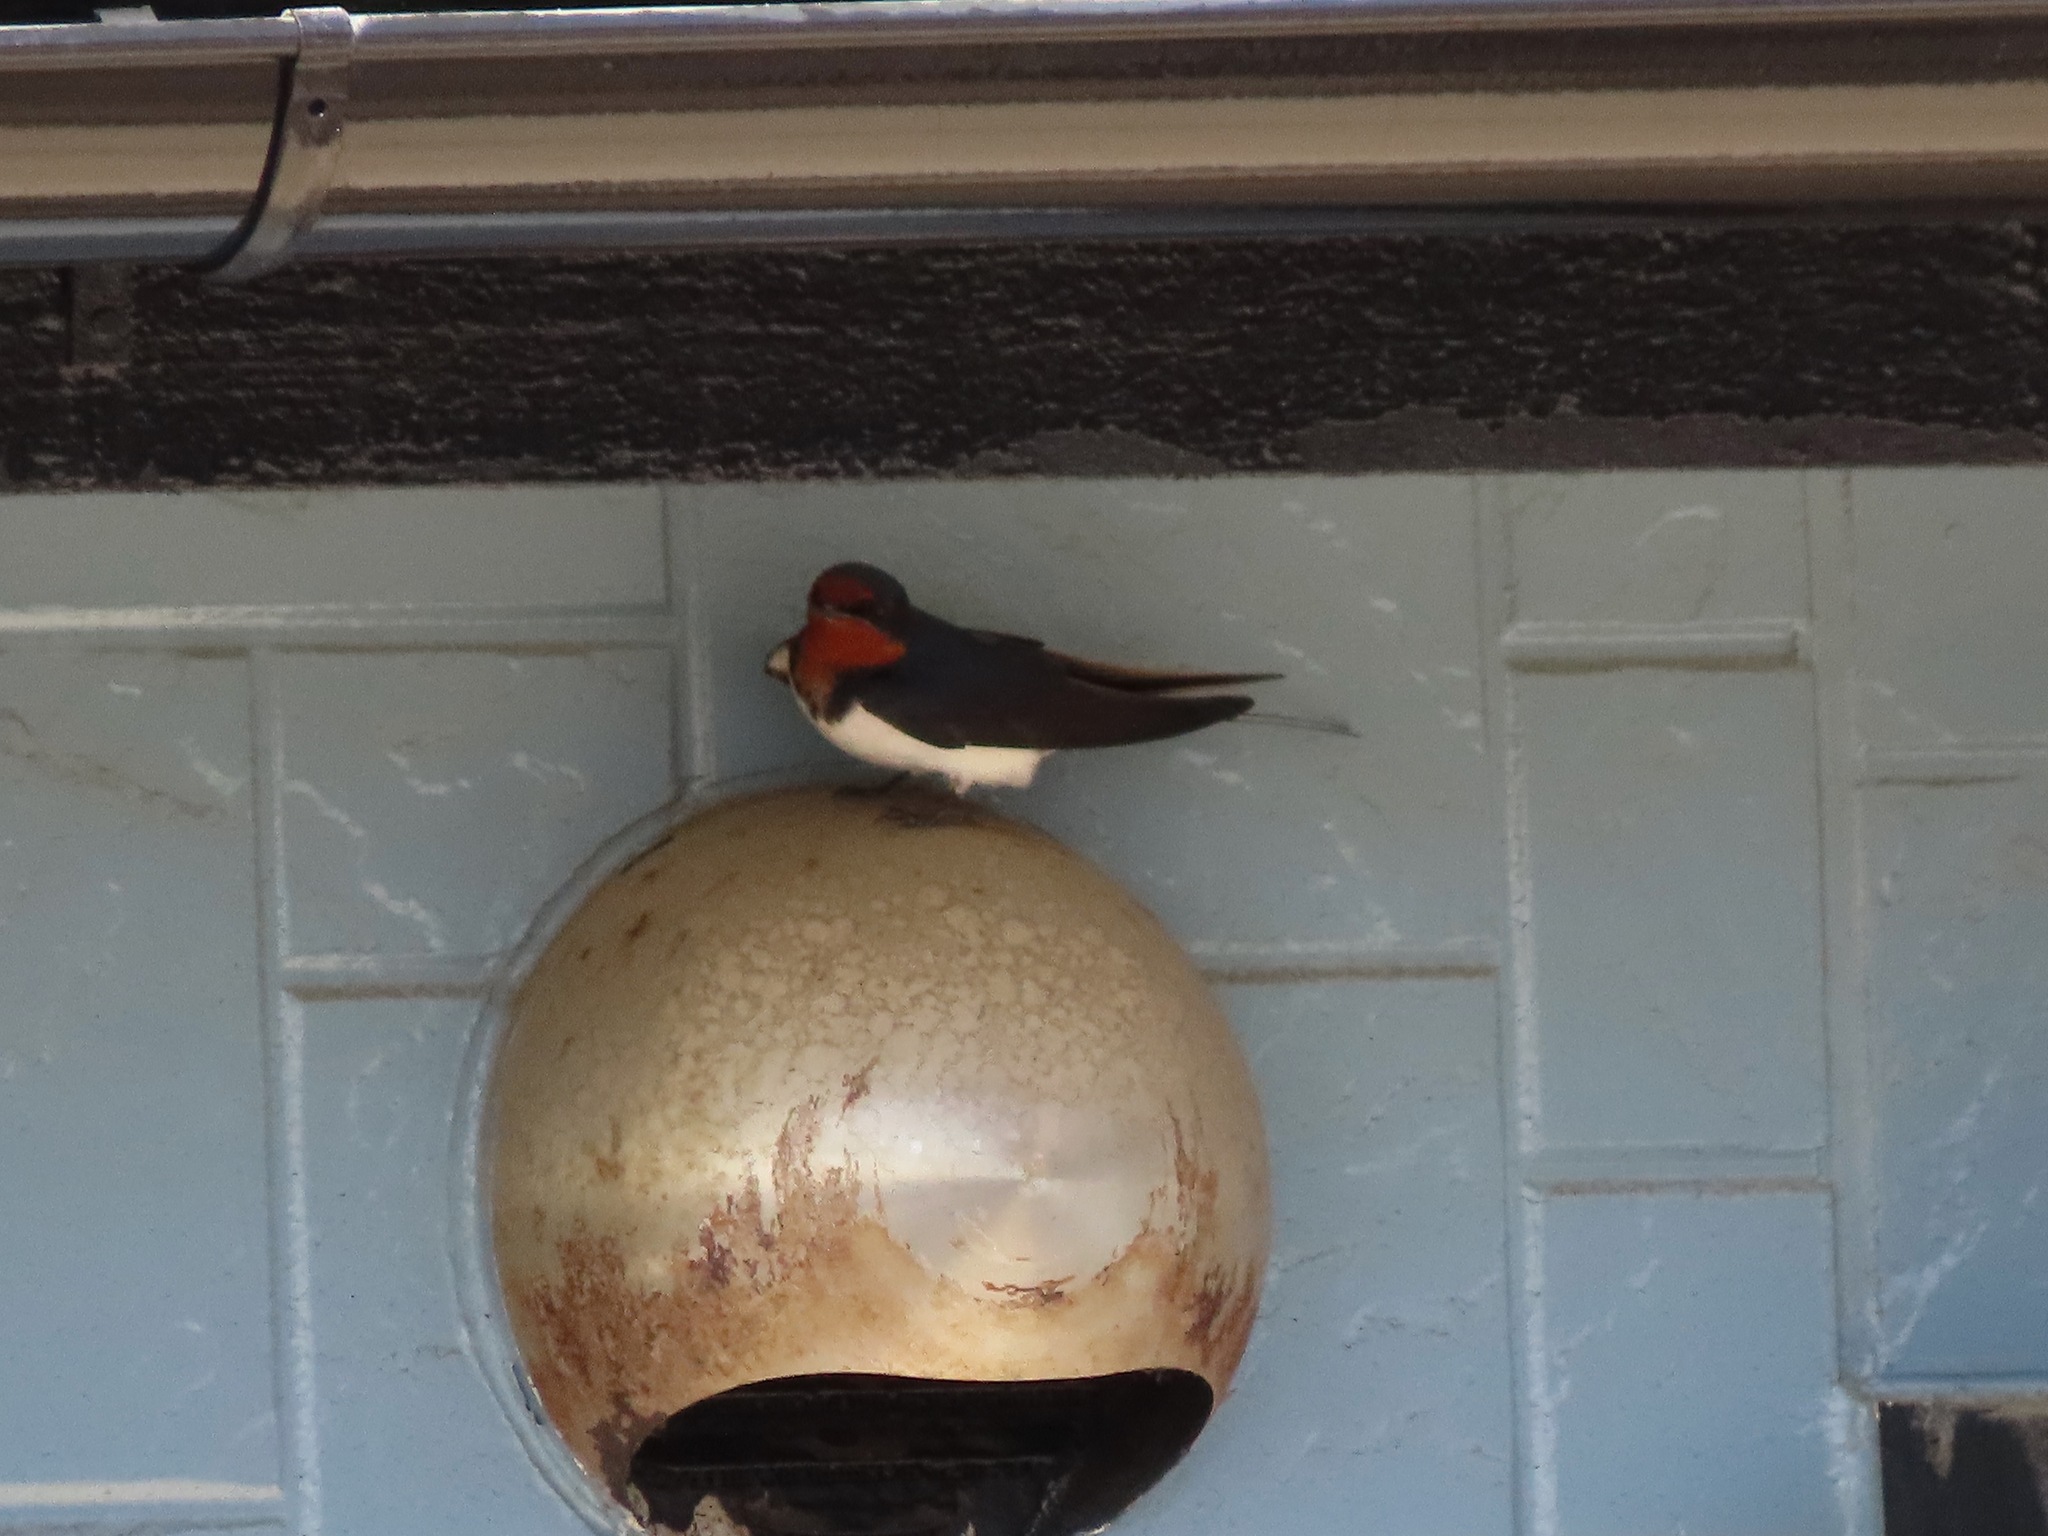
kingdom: Animalia
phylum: Chordata
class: Aves
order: Passeriformes
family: Hirundinidae
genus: Hirundo
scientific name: Hirundo rustica
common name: Barn swallow
